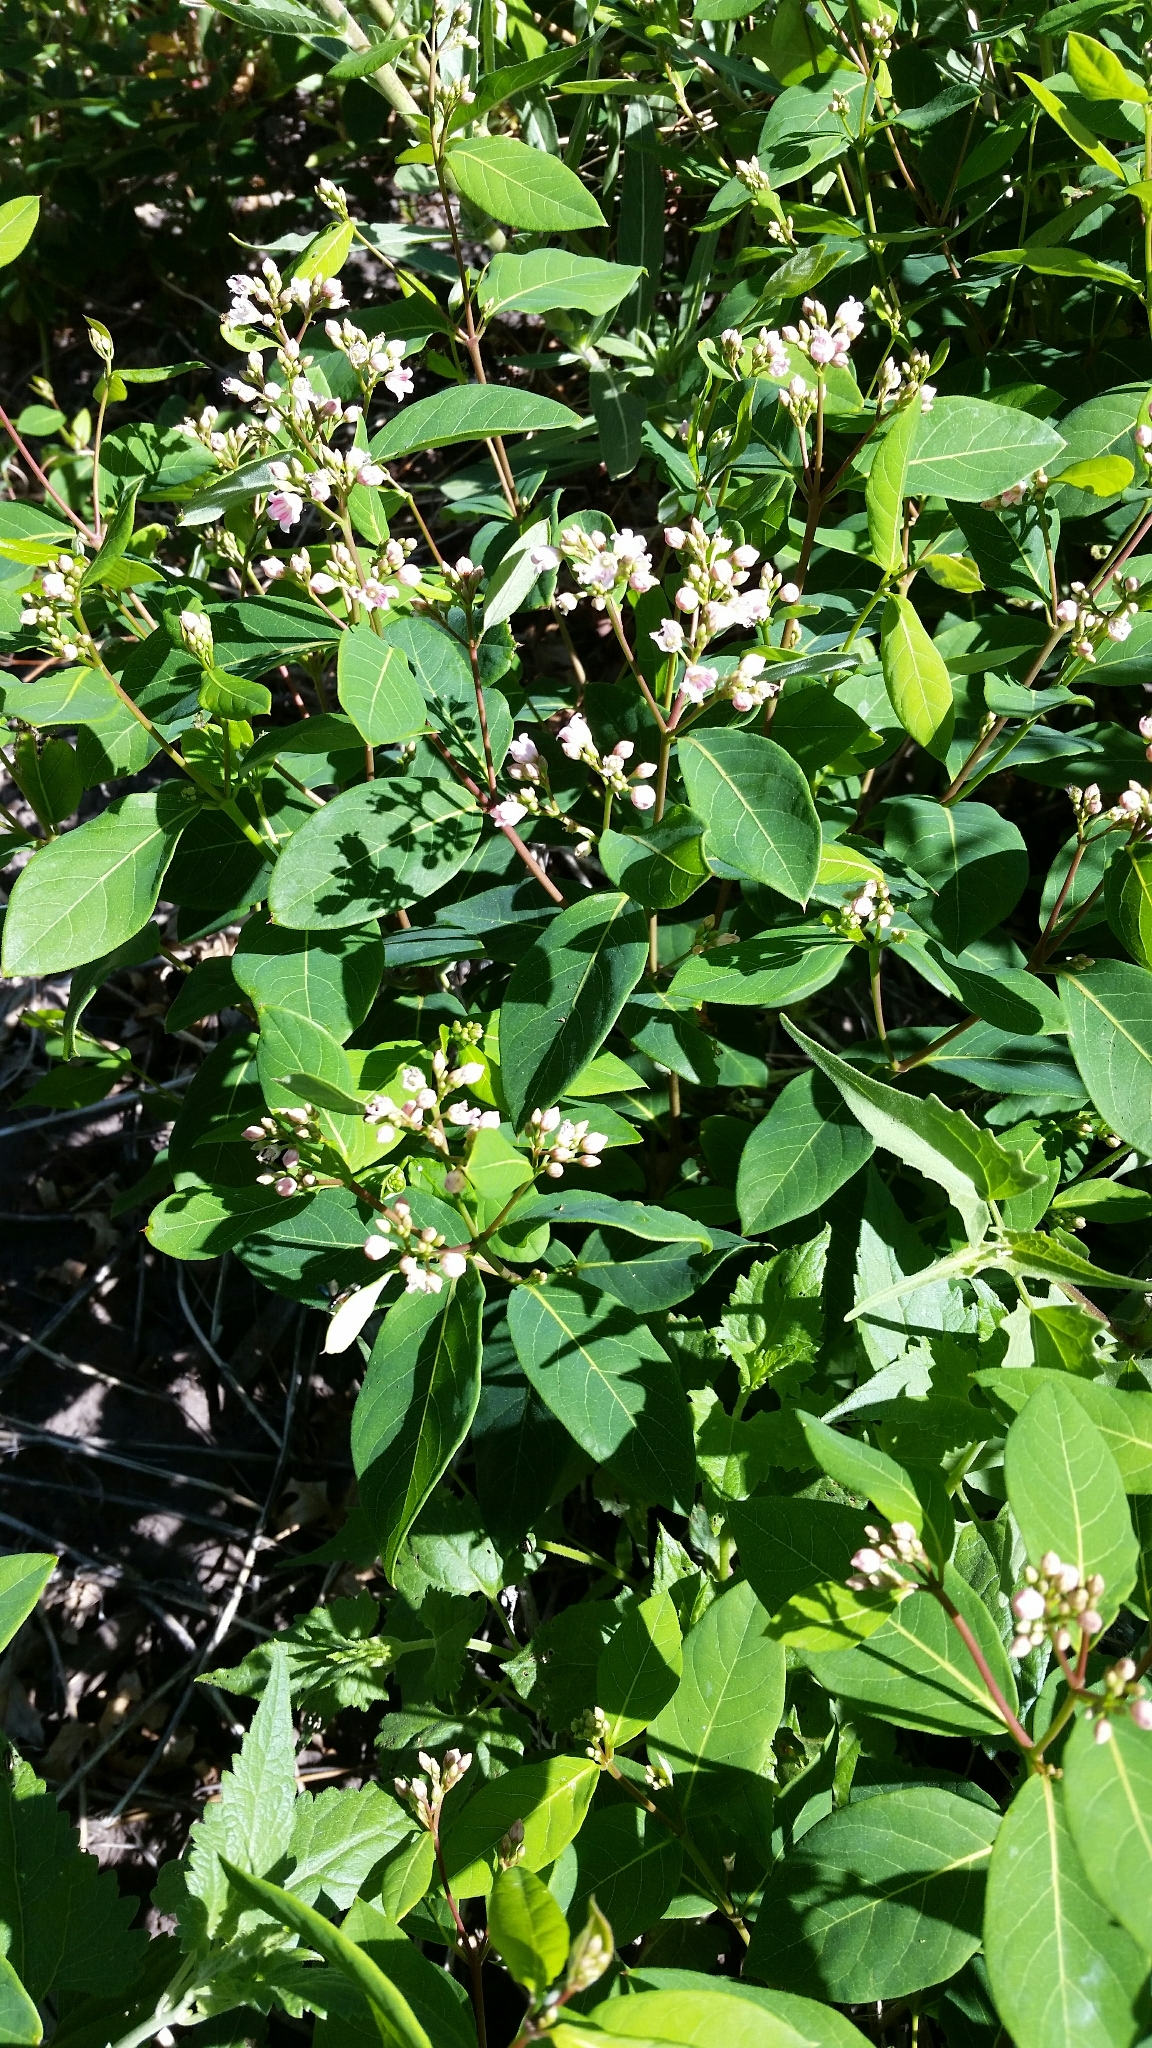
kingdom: Plantae
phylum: Tracheophyta
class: Magnoliopsida
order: Gentianales
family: Apocynaceae
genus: Apocynum
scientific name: Apocynum androsaemifolium
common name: Spreading dogbane
